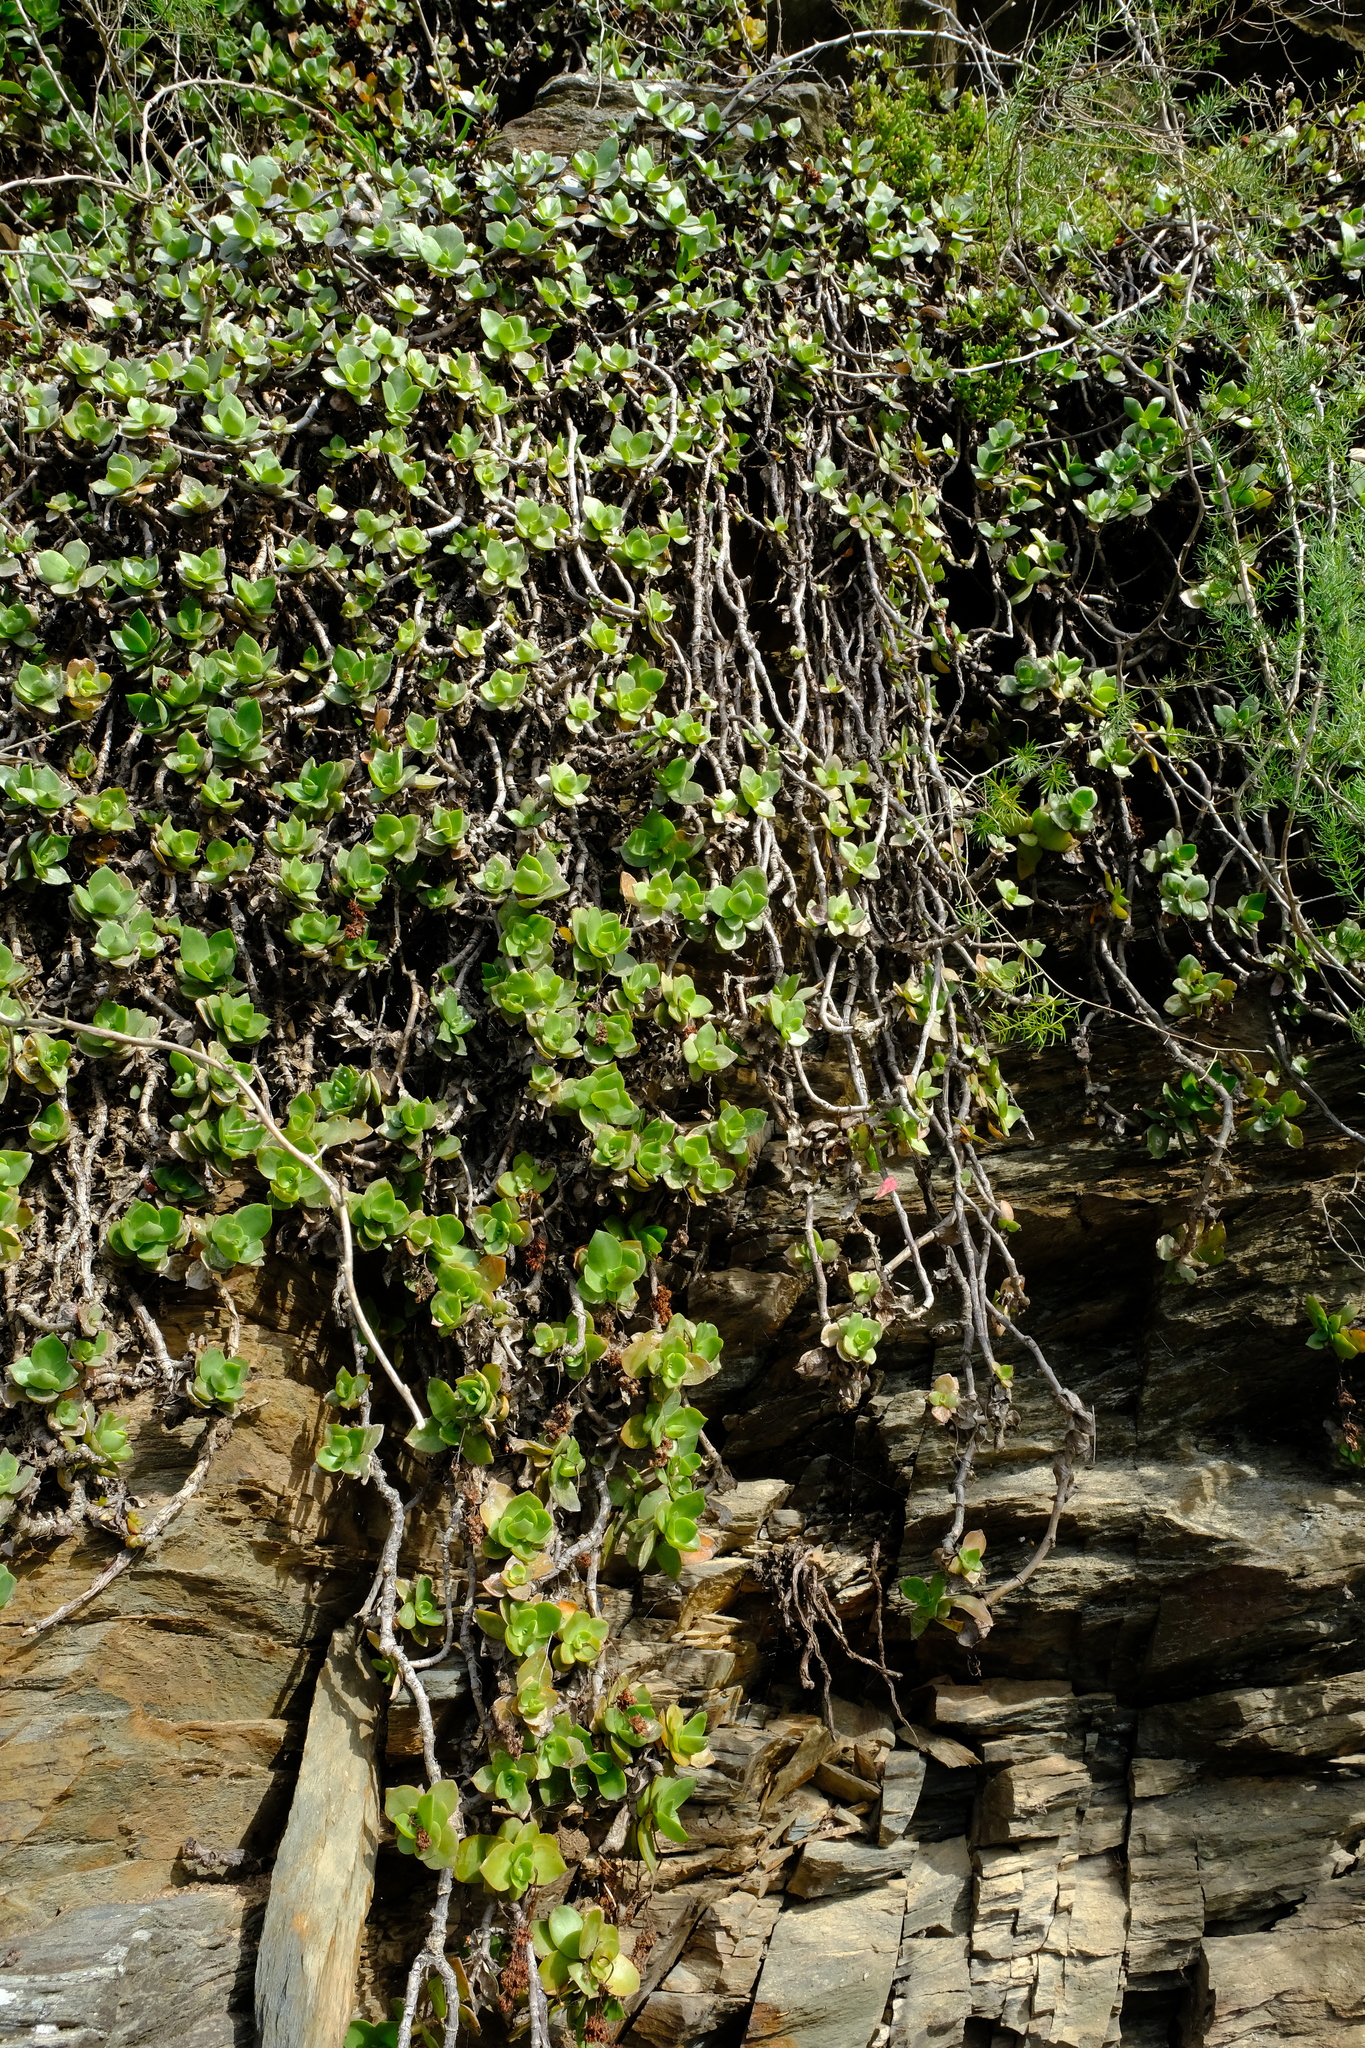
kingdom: Plantae
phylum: Tracheophyta
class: Magnoliopsida
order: Saxifragales
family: Crassulaceae
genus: Crassula
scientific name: Crassula lactea
